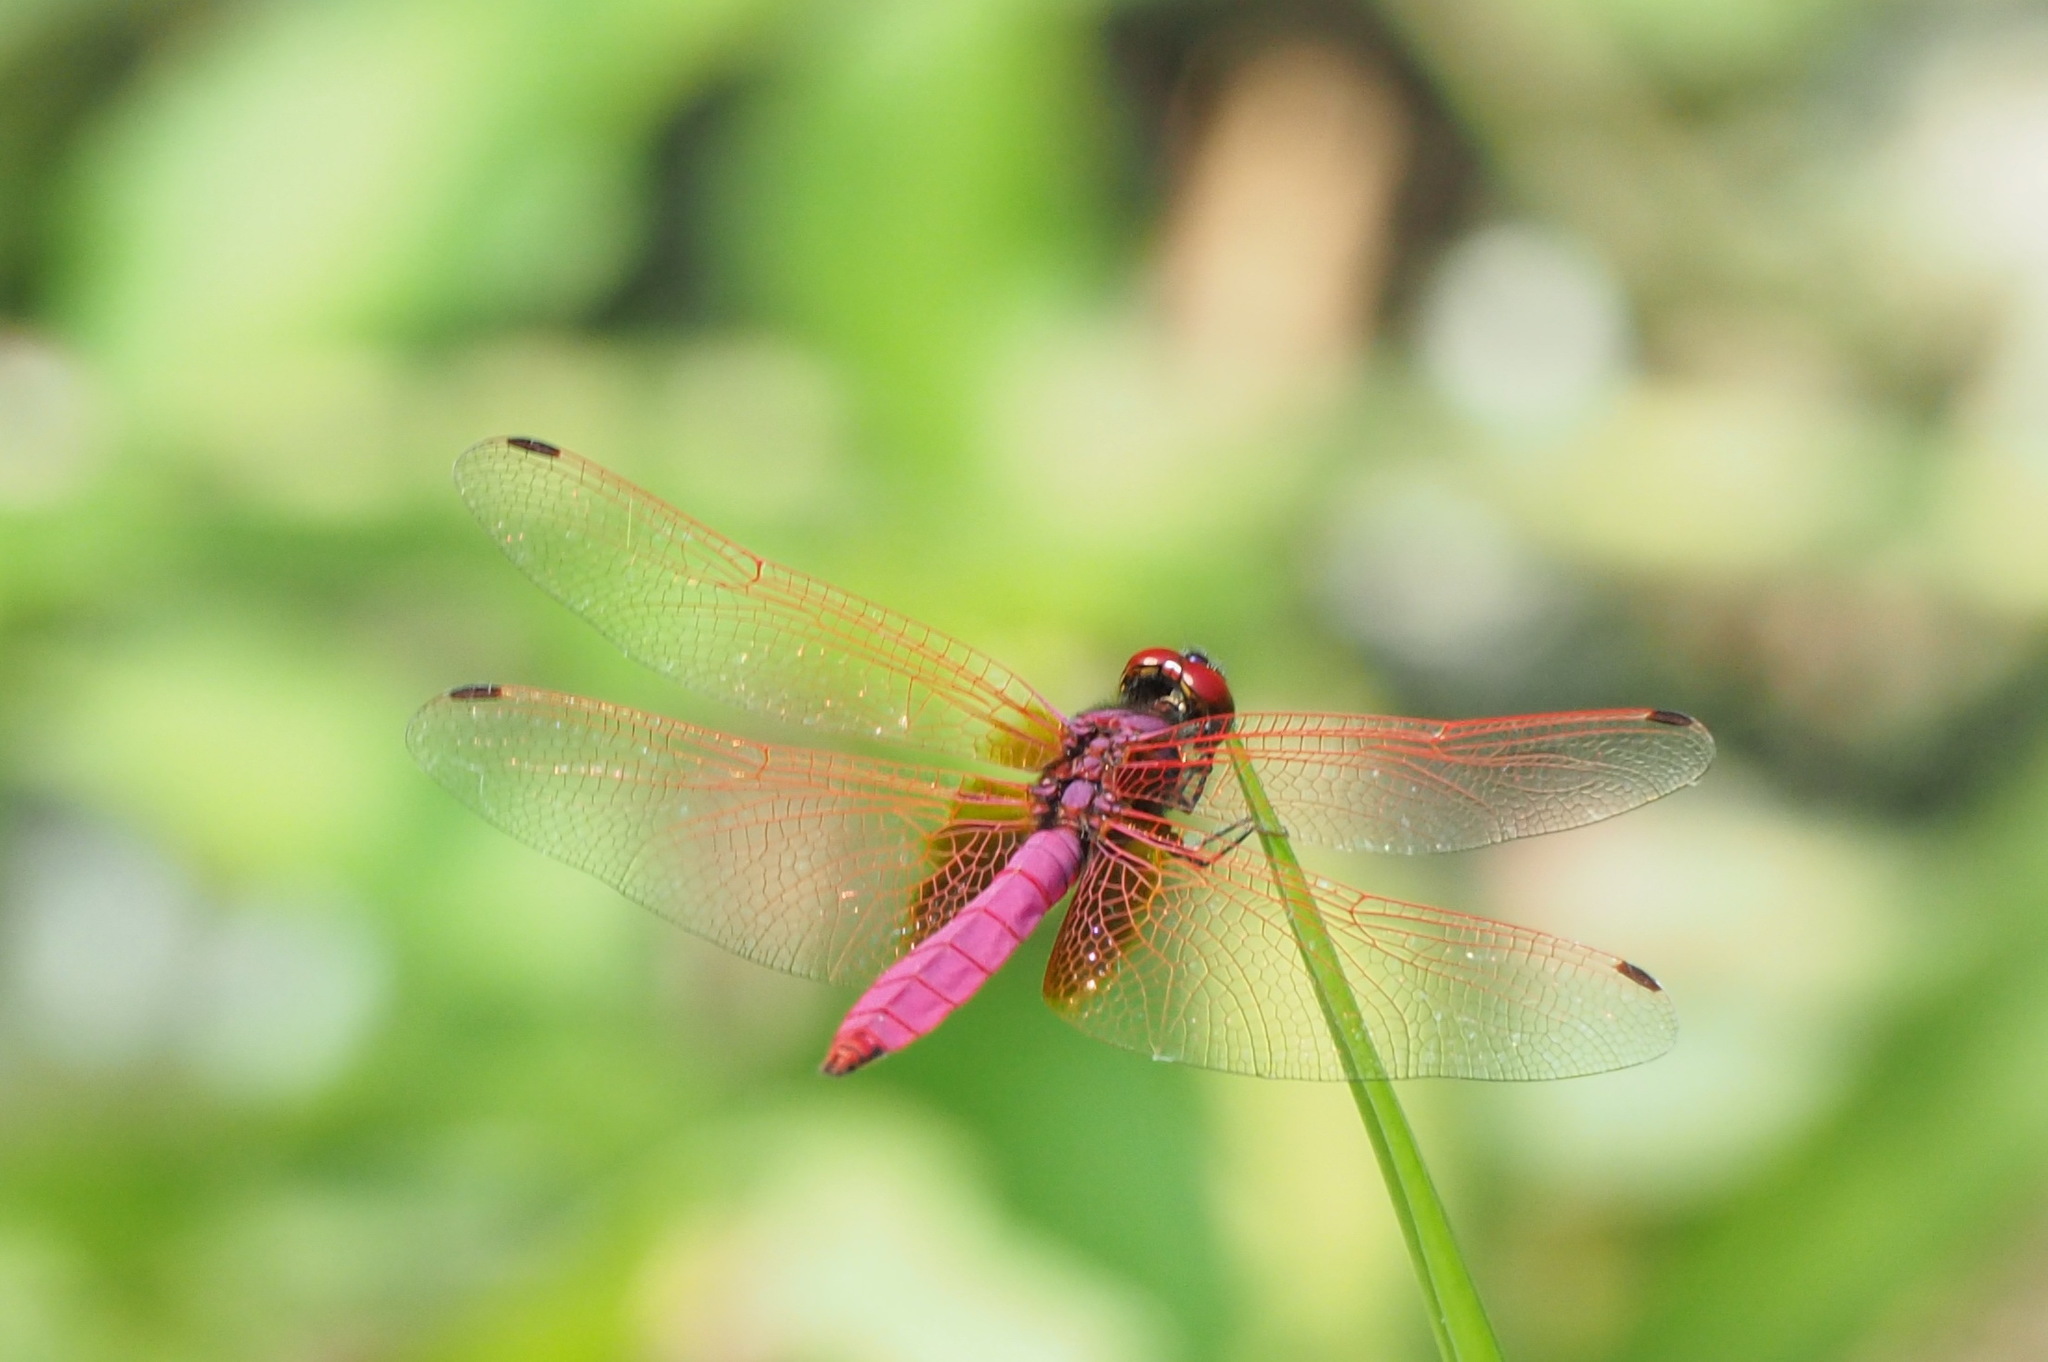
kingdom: Animalia
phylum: Arthropoda
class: Insecta
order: Odonata
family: Libellulidae
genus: Trithemis
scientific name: Trithemis aurora
